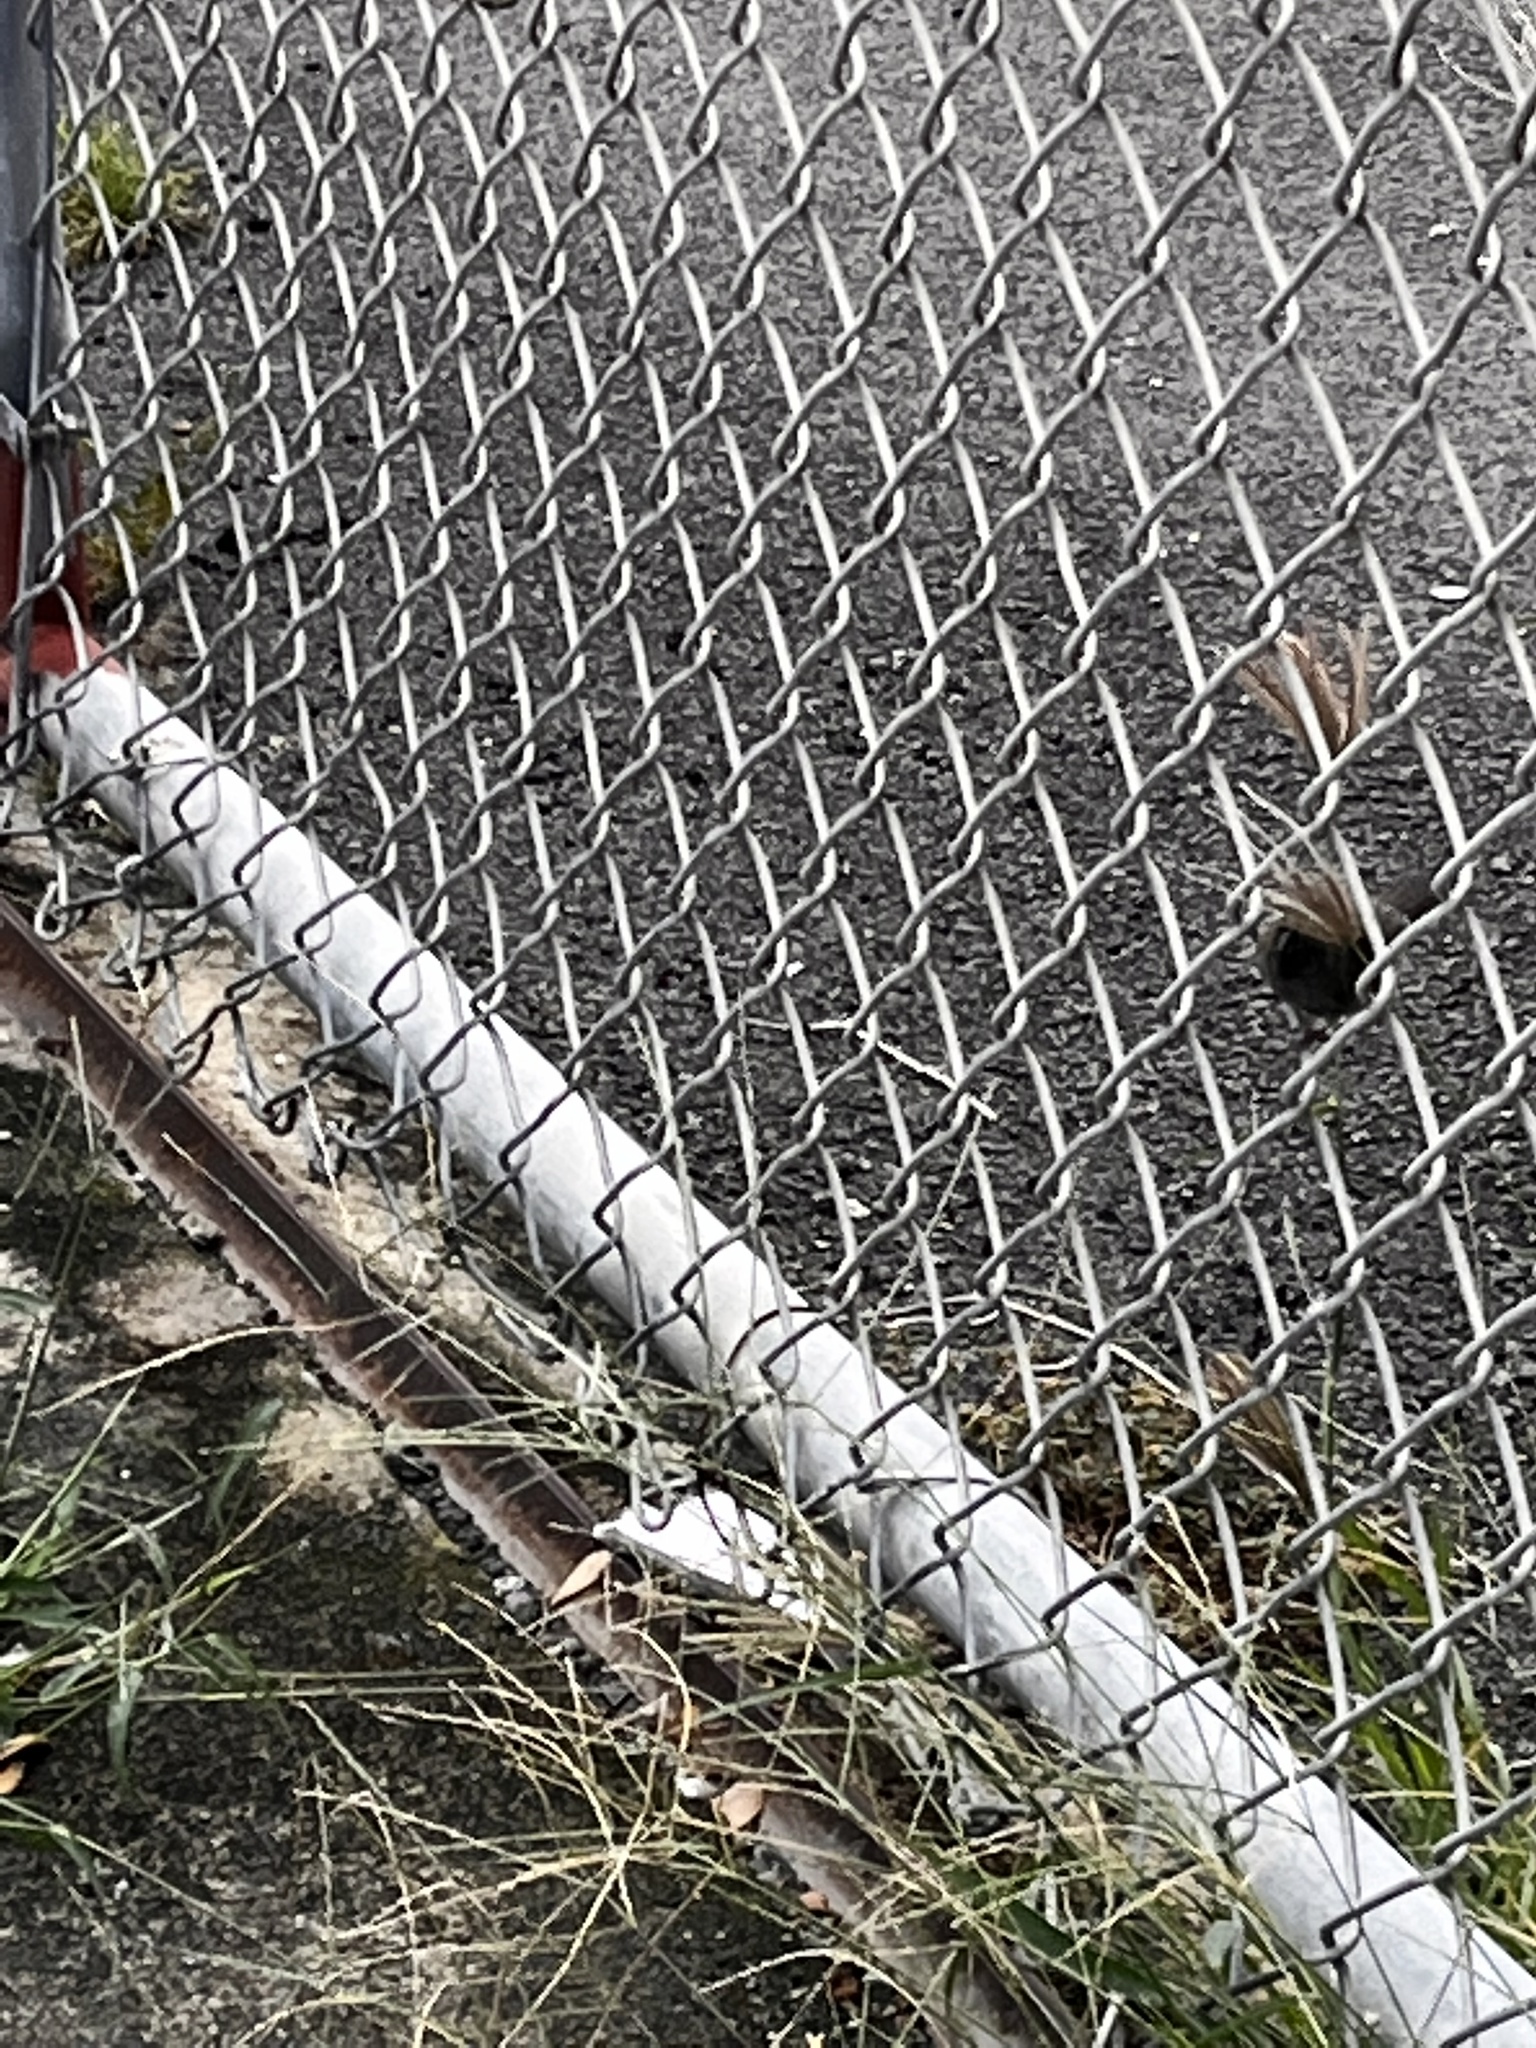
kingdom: Animalia
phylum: Chordata
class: Aves
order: Passeriformes
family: Thraupidae
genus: Melanospiza
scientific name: Melanospiza bicolor
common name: Black-faced grassquit
